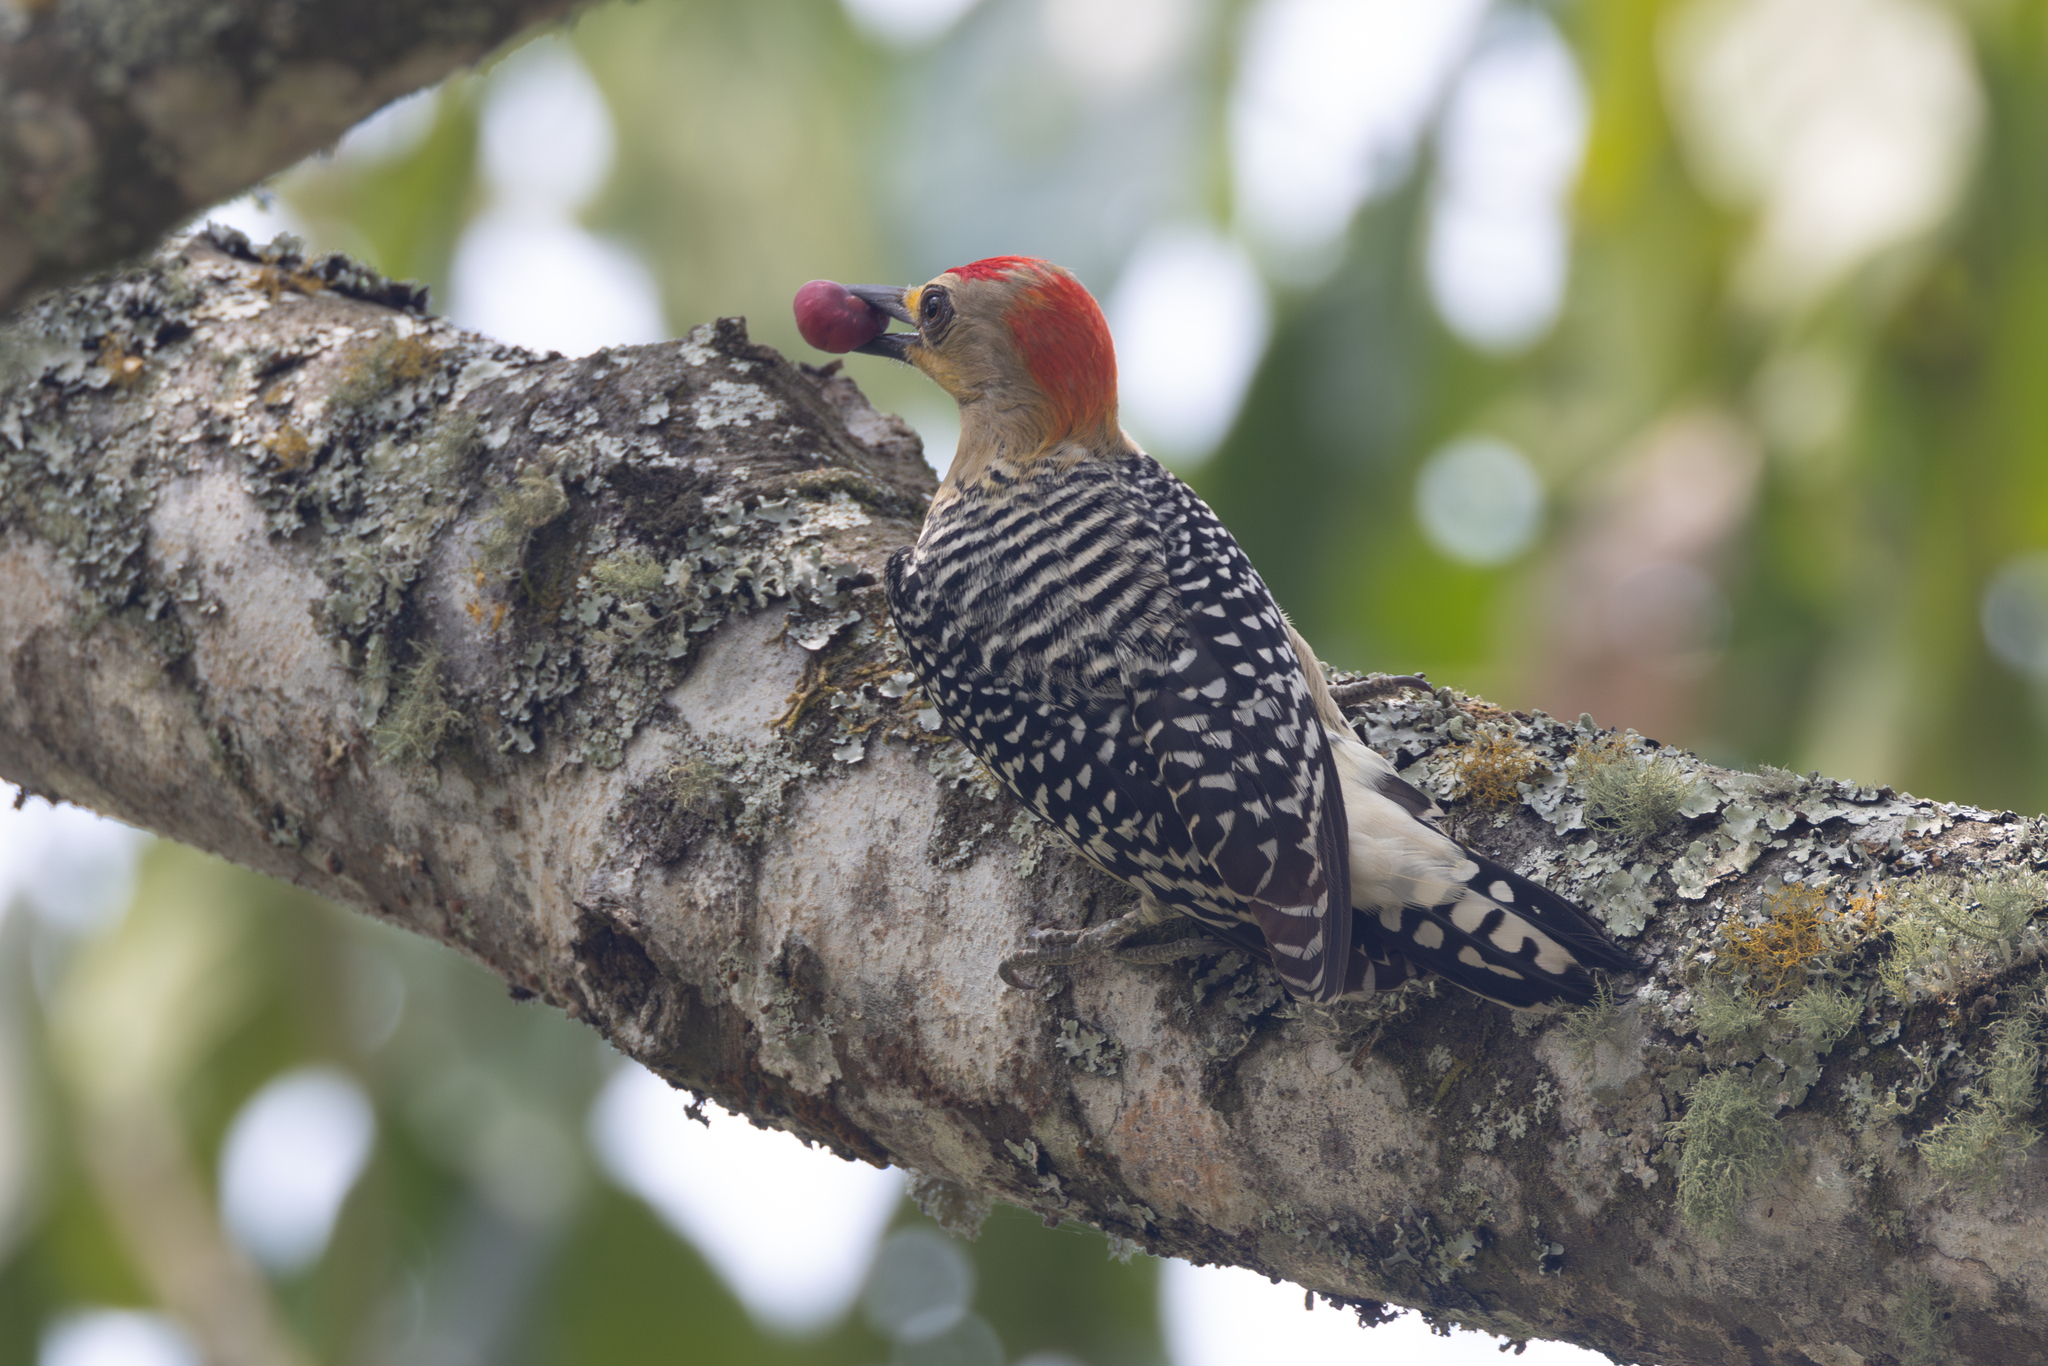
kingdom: Animalia
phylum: Chordata
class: Aves
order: Piciformes
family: Picidae
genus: Melanerpes
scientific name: Melanerpes rubricapillus
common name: Red-crowned woodpecker
